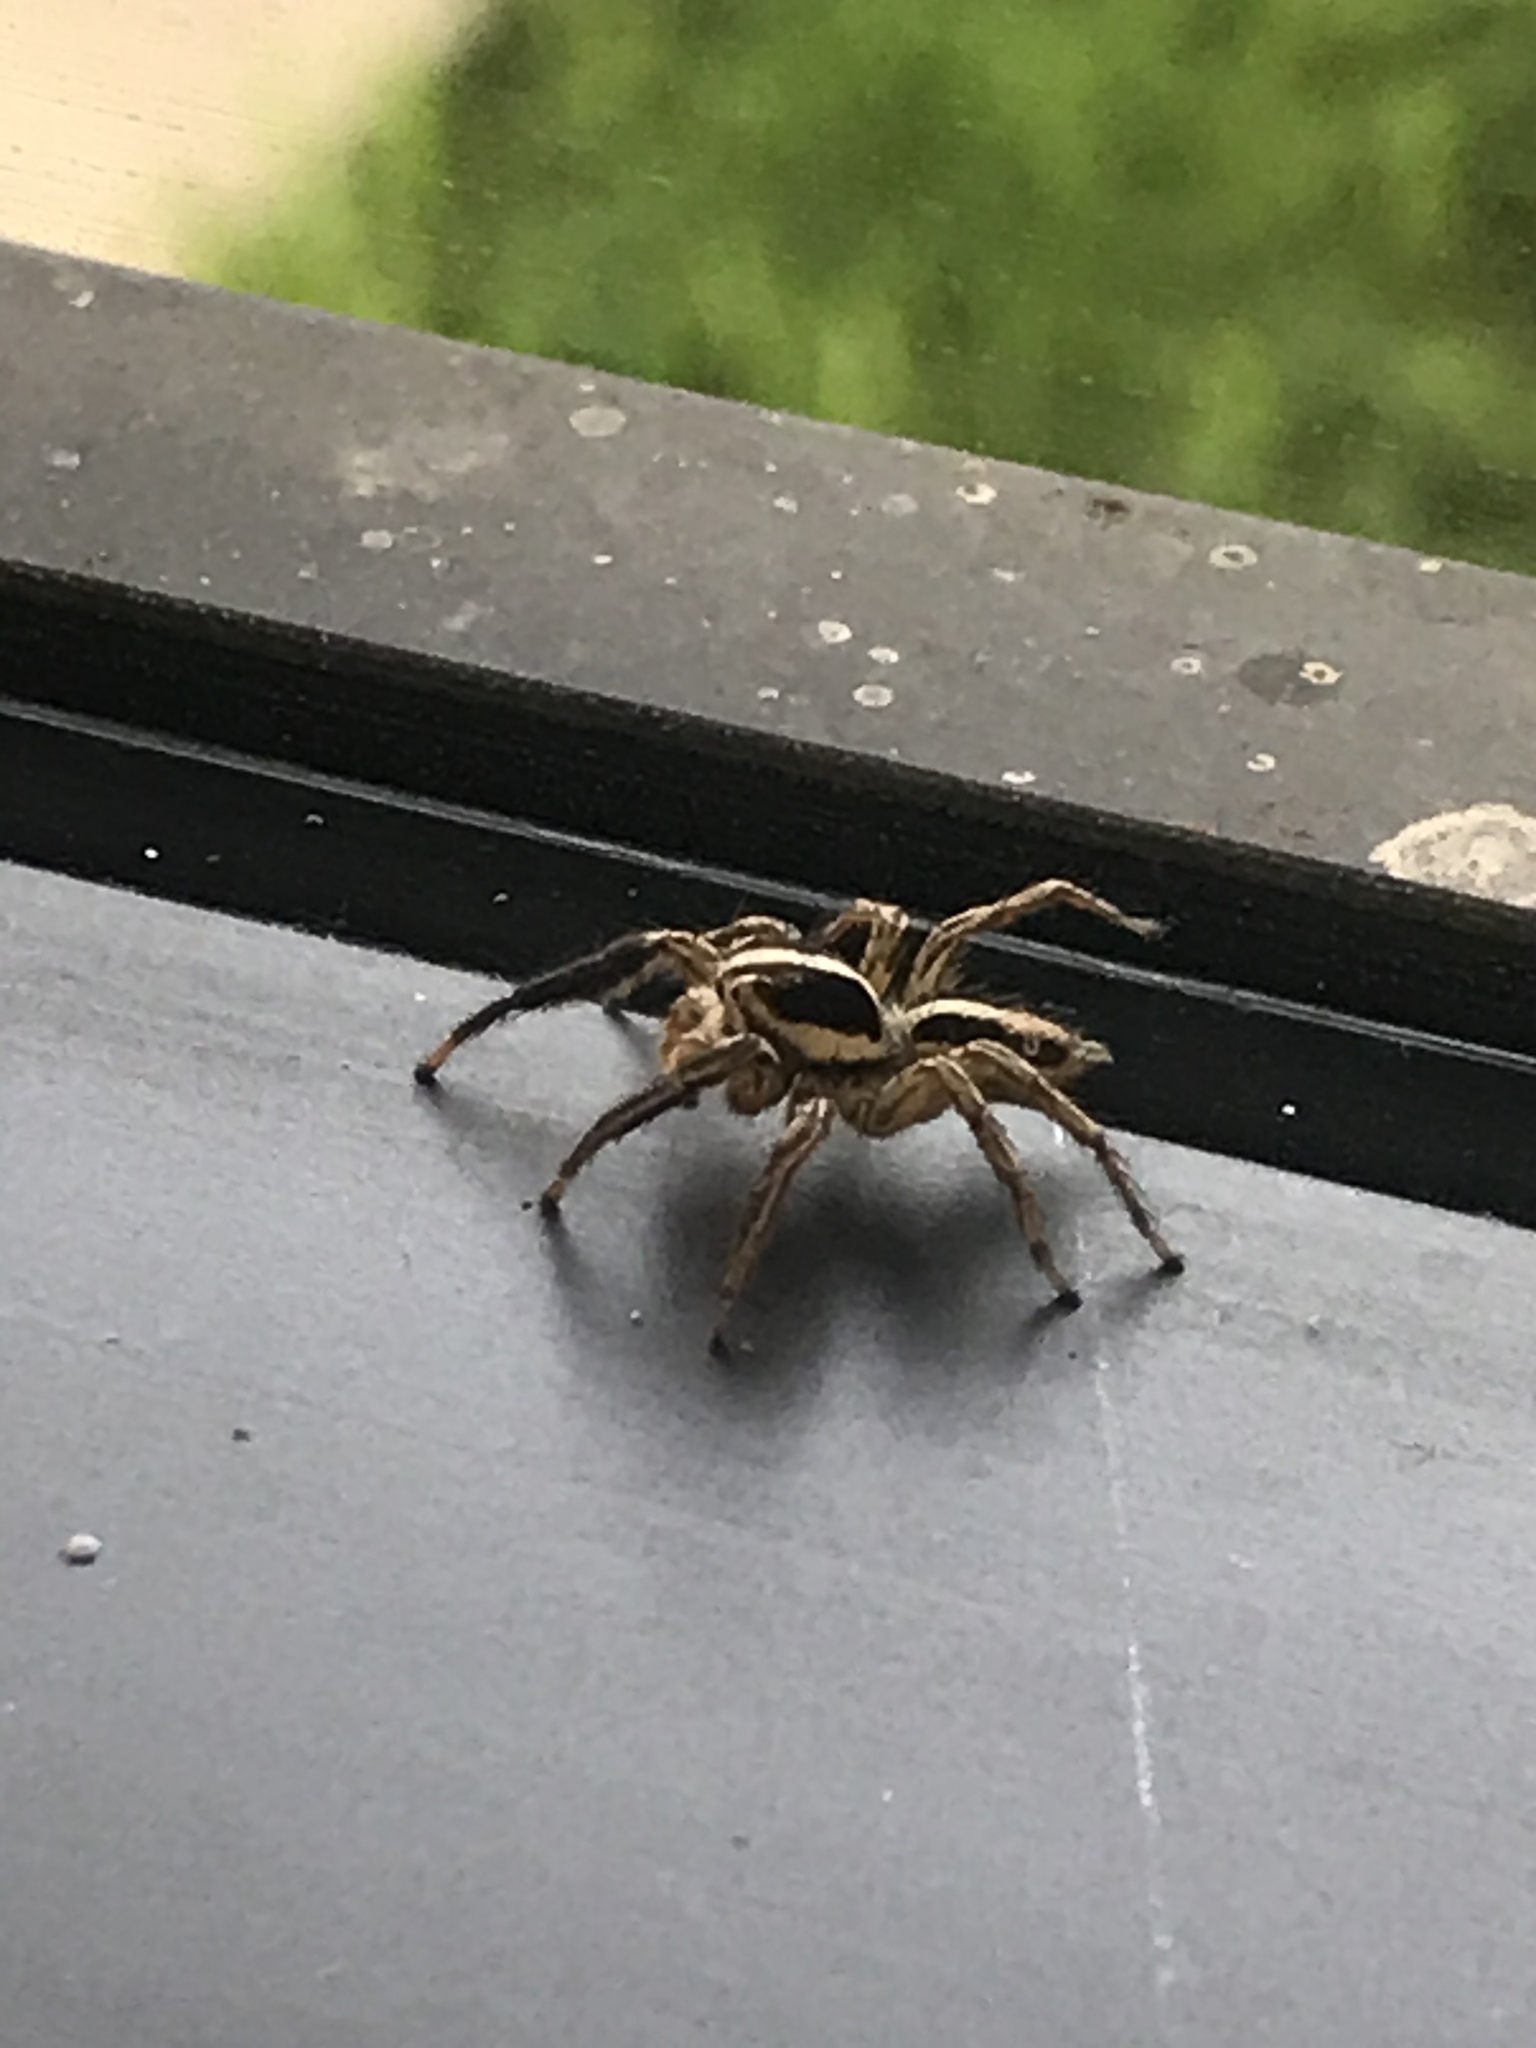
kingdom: Animalia
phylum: Arthropoda
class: Arachnida
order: Araneae
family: Salticidae
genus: Plexippus
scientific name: Plexippus paykulli
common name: Pantropical jumper
